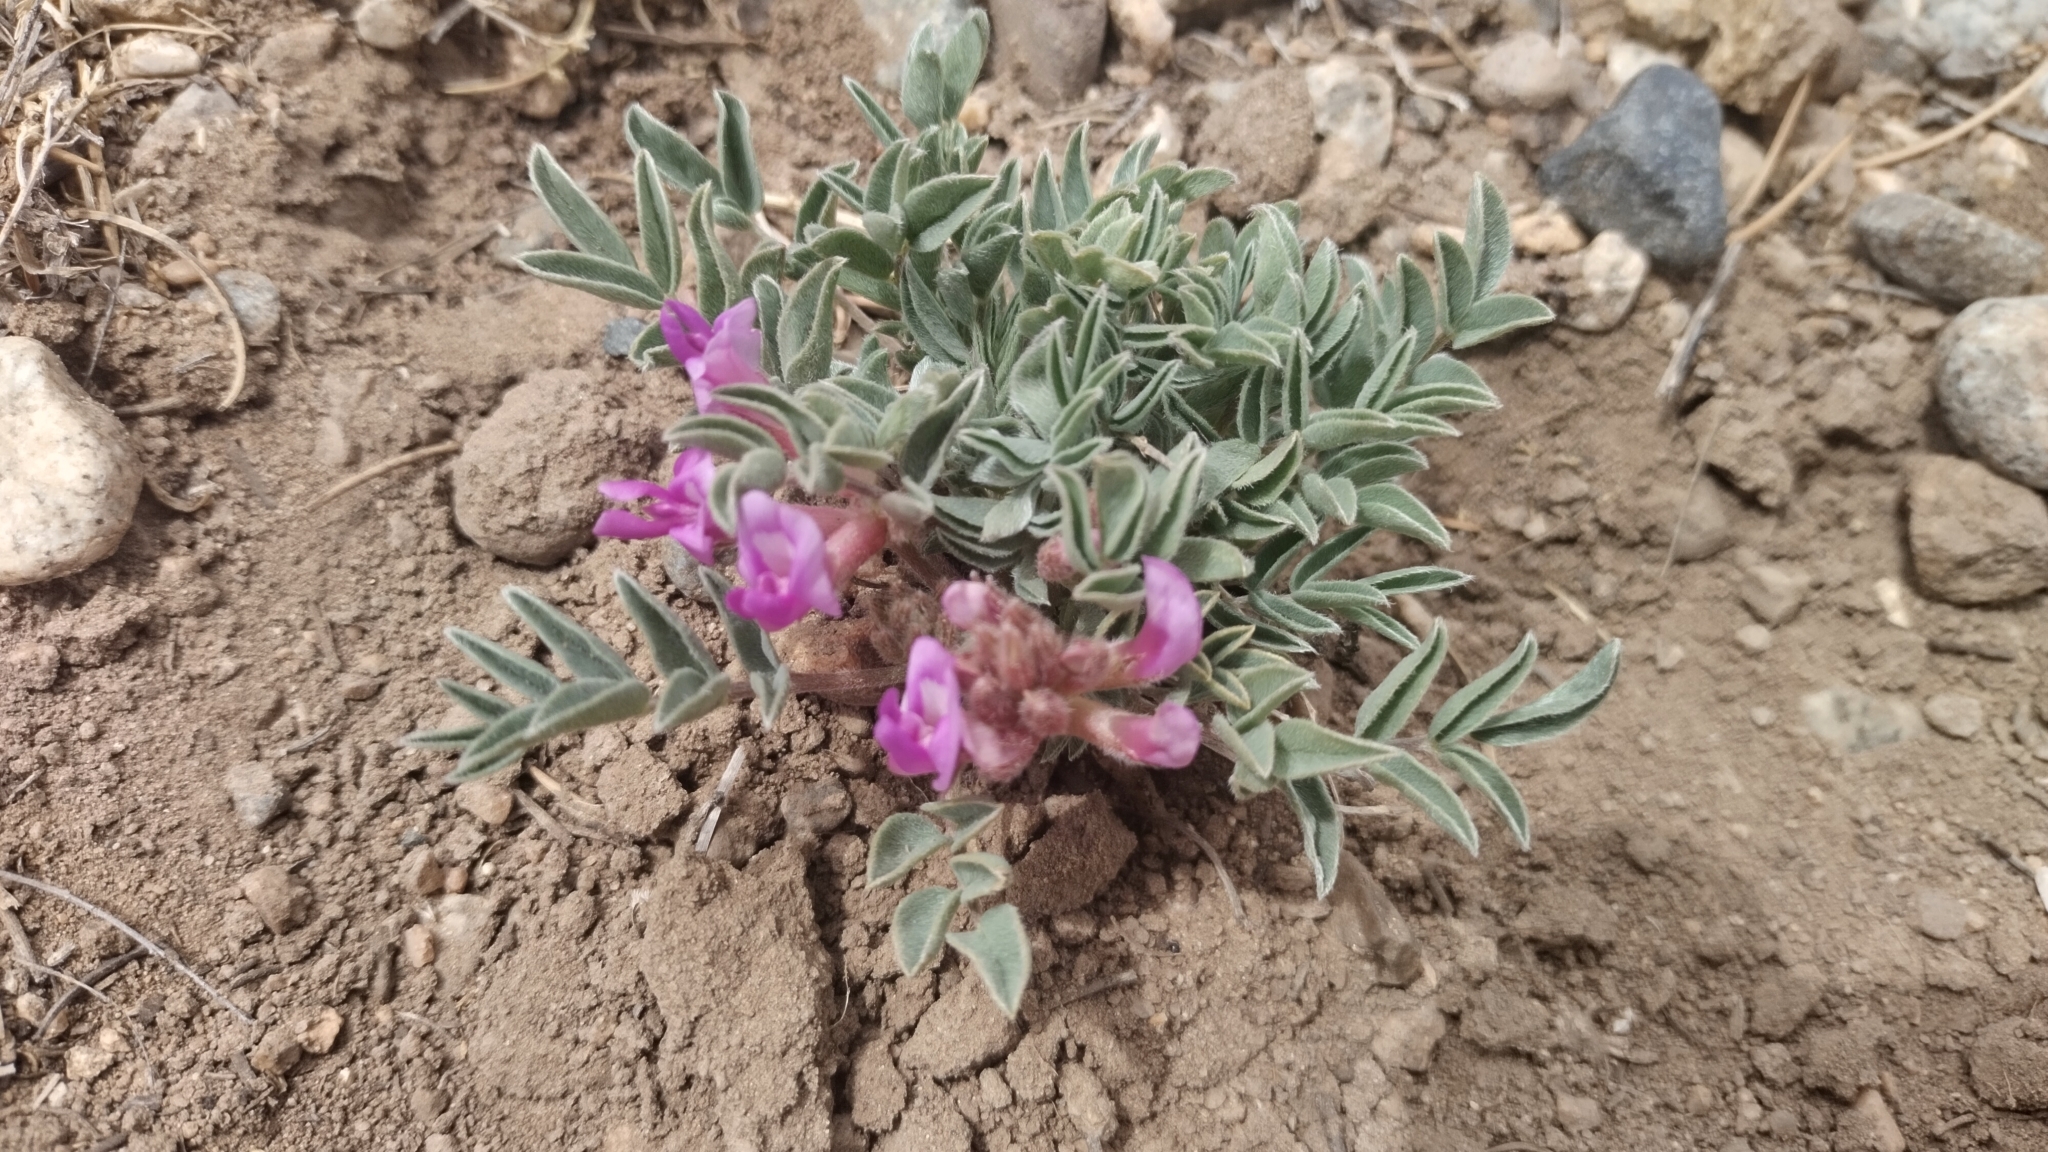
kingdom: Plantae
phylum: Tracheophyta
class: Magnoliopsida
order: Fabales
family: Fabaceae
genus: Astragalus
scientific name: Astragalus shortianus
